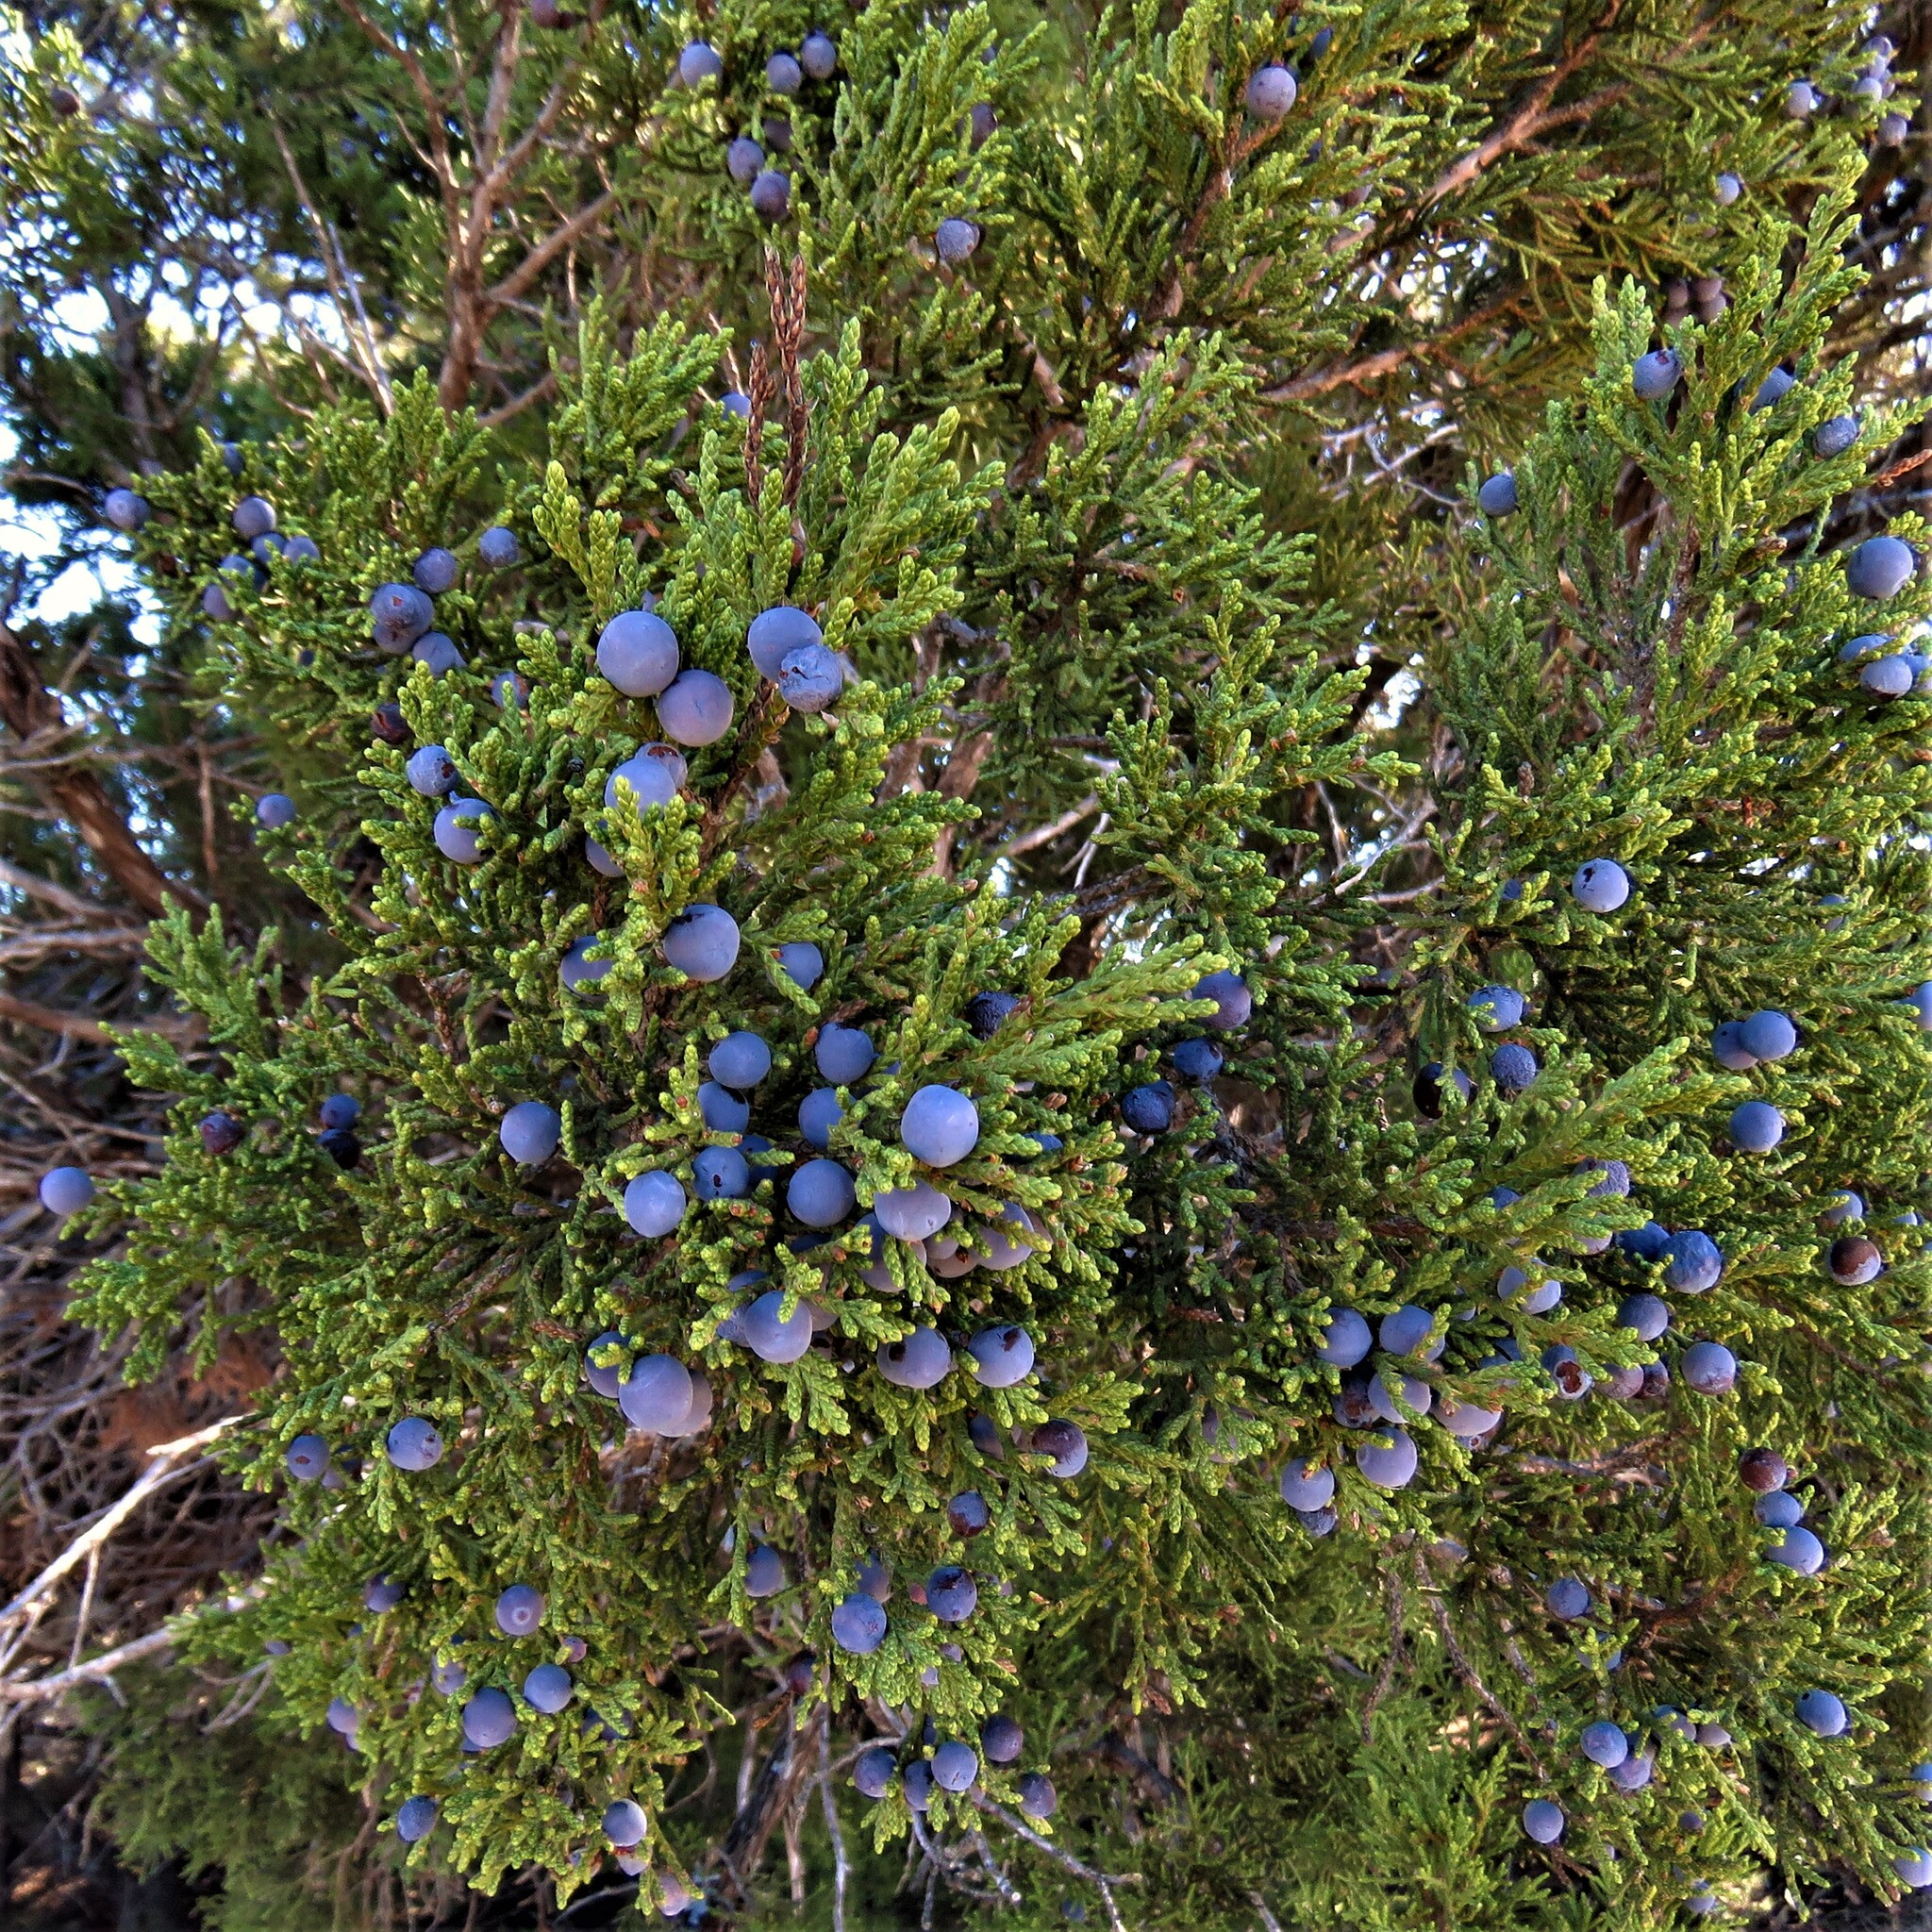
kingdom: Plantae
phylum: Tracheophyta
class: Pinopsida
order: Pinales
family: Cupressaceae
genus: Juniperus
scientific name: Juniperus ashei
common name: Mexican juniper
